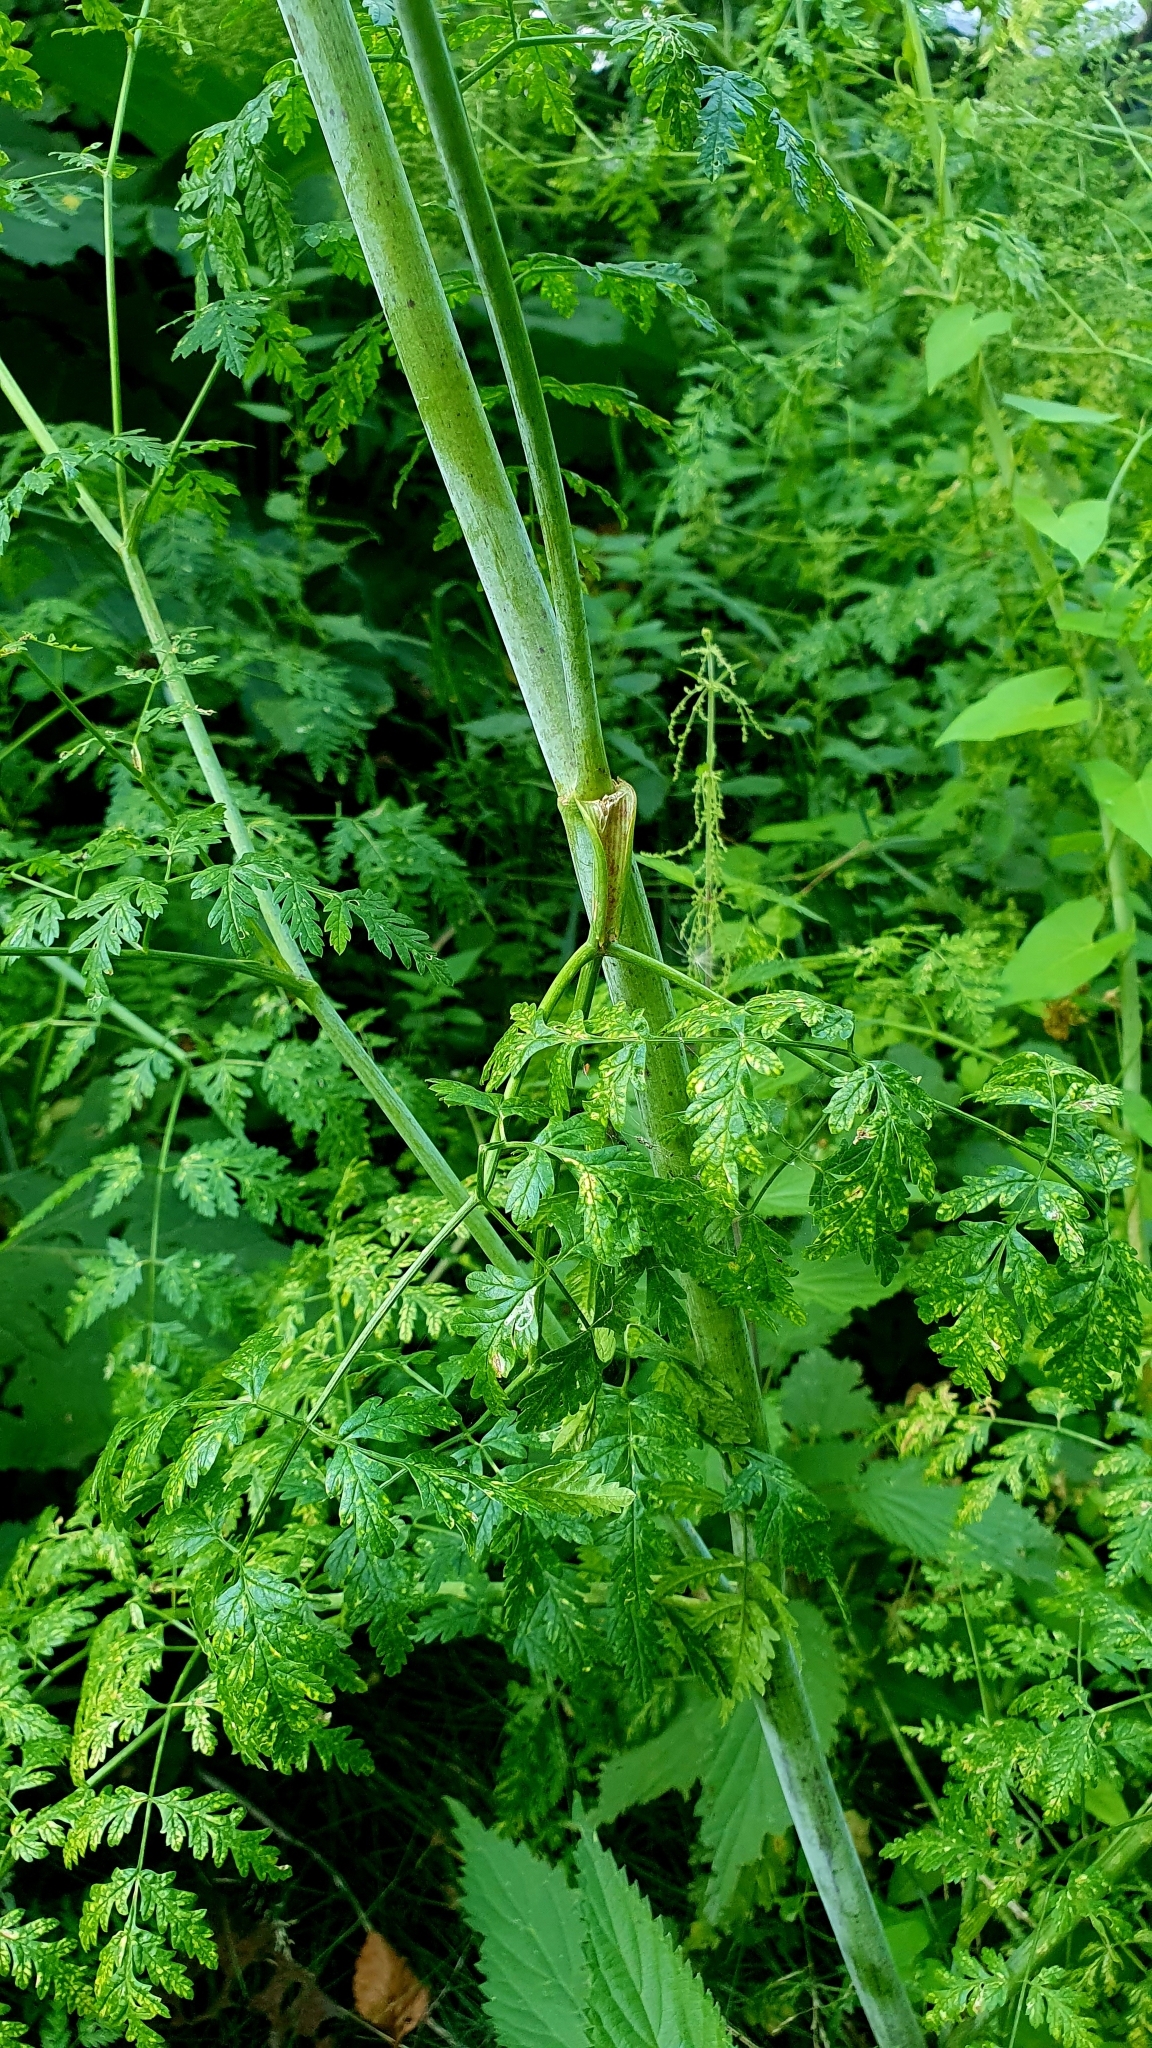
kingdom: Plantae
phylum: Tracheophyta
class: Magnoliopsida
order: Apiales
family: Apiaceae
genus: Conium
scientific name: Conium maculatum
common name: Hemlock
